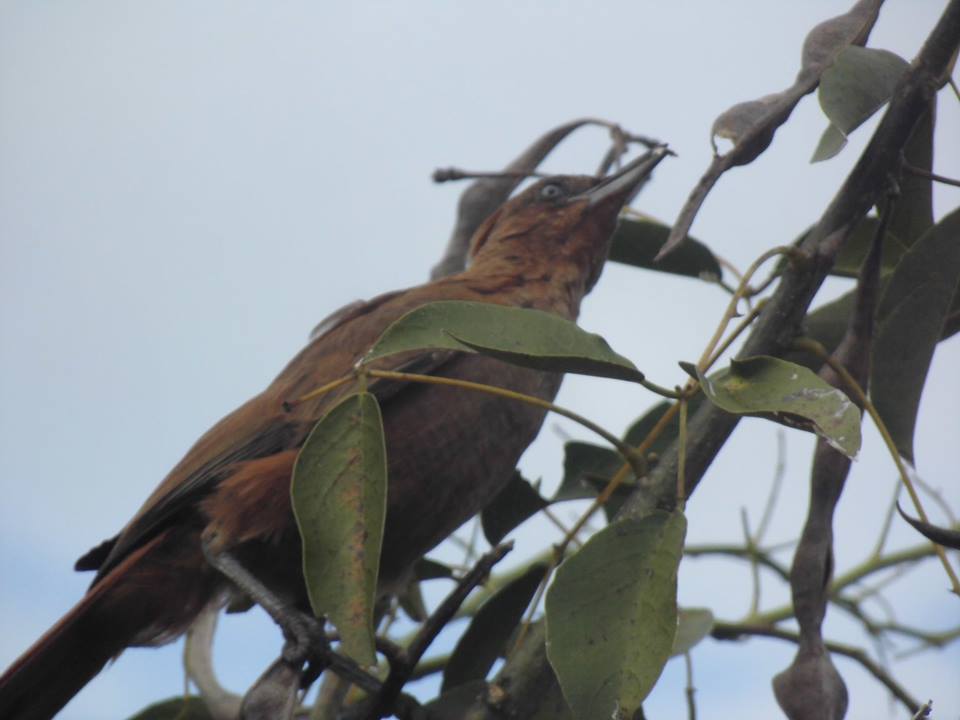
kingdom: Animalia
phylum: Chordata
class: Aves
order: Passeriformes
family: Furnariidae
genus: Pseudoseisura
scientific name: Pseudoseisura lophotes
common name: Brown cacholote
